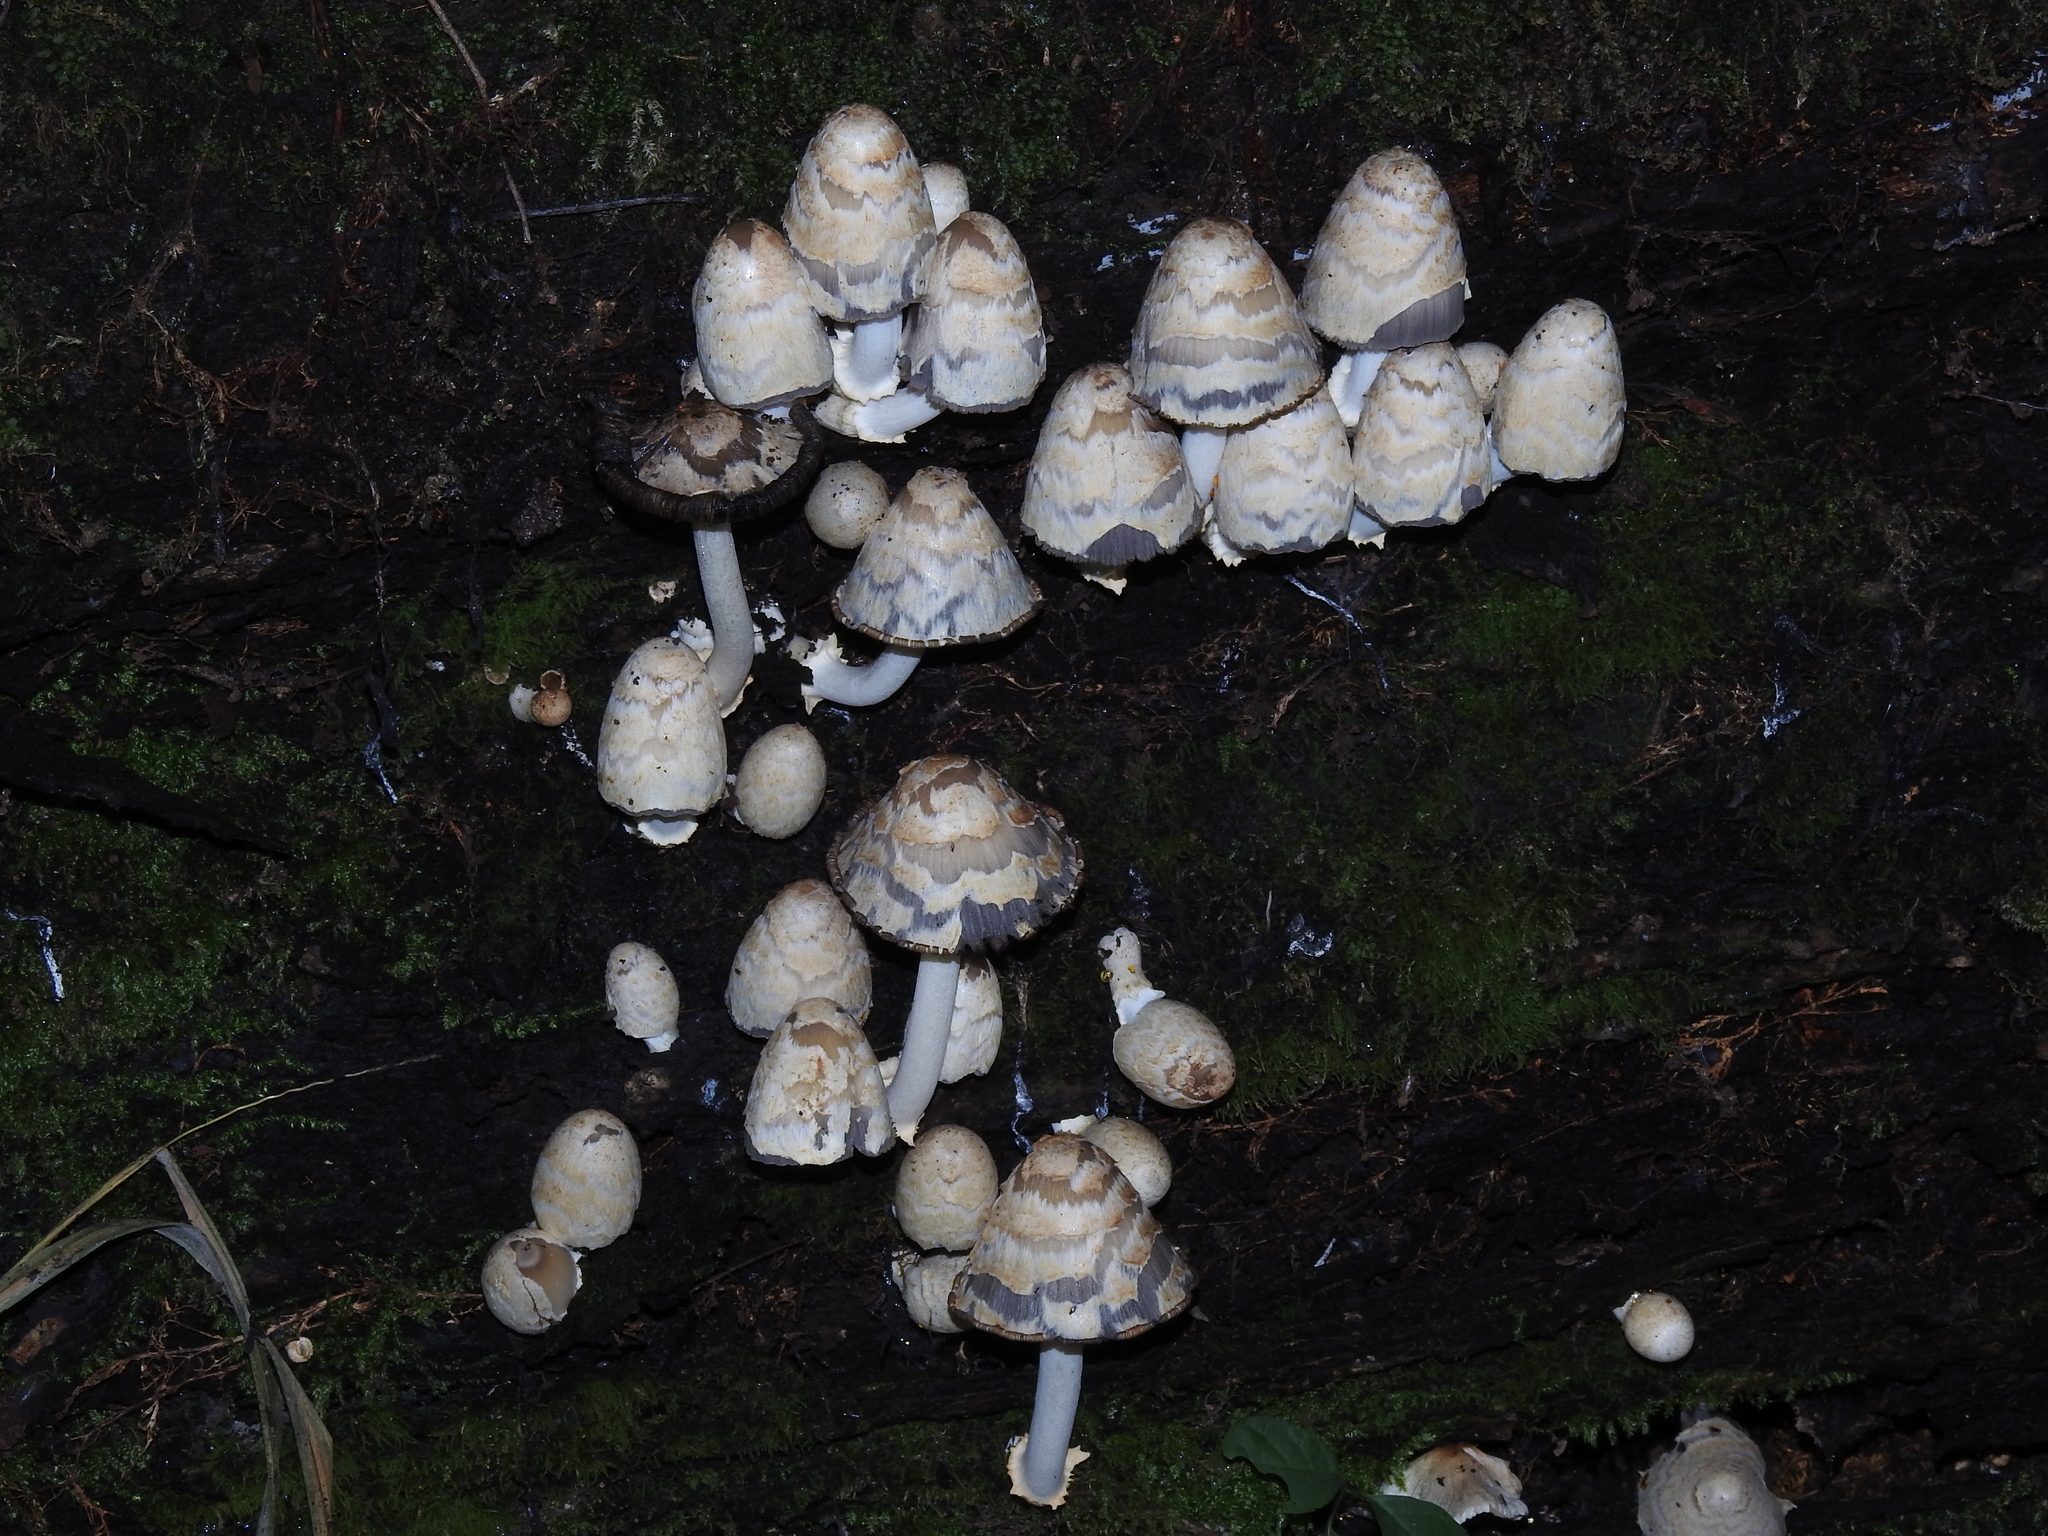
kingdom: Fungi
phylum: Basidiomycota
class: Agaricomycetes
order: Agaricales
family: Psathyrellaceae
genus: Coprinopsis
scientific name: Coprinopsis variegata
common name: Scaly ink cap
